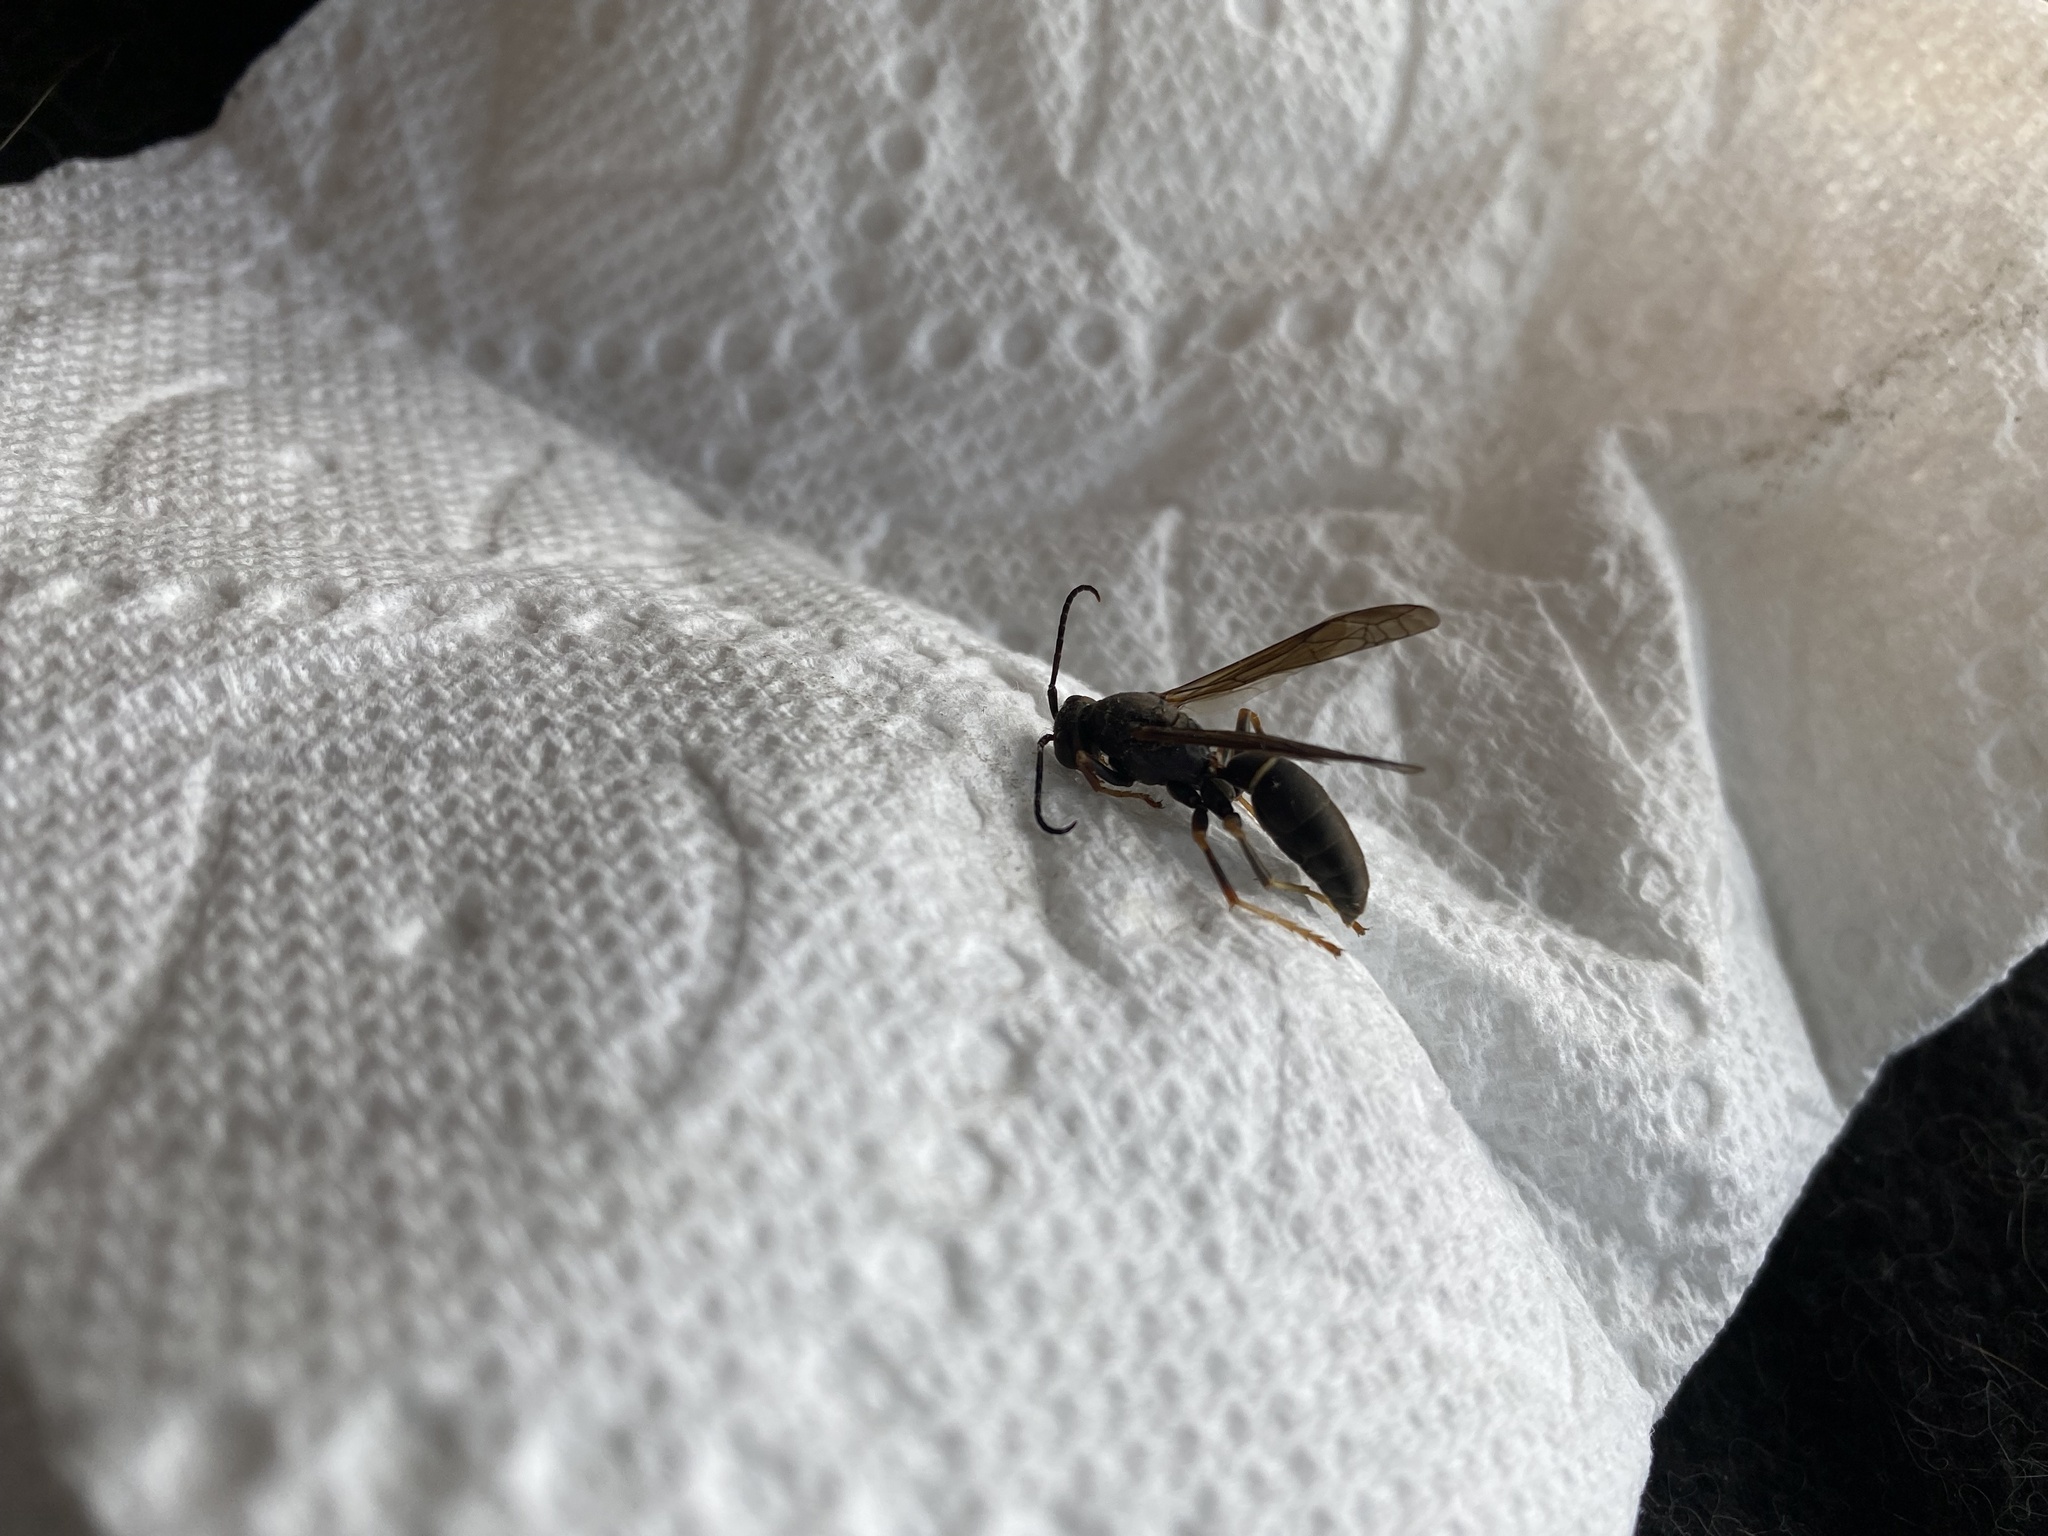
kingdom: Animalia
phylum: Arthropoda
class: Insecta
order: Hymenoptera
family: Vespidae
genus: Fuscopolistes
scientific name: Fuscopolistes
